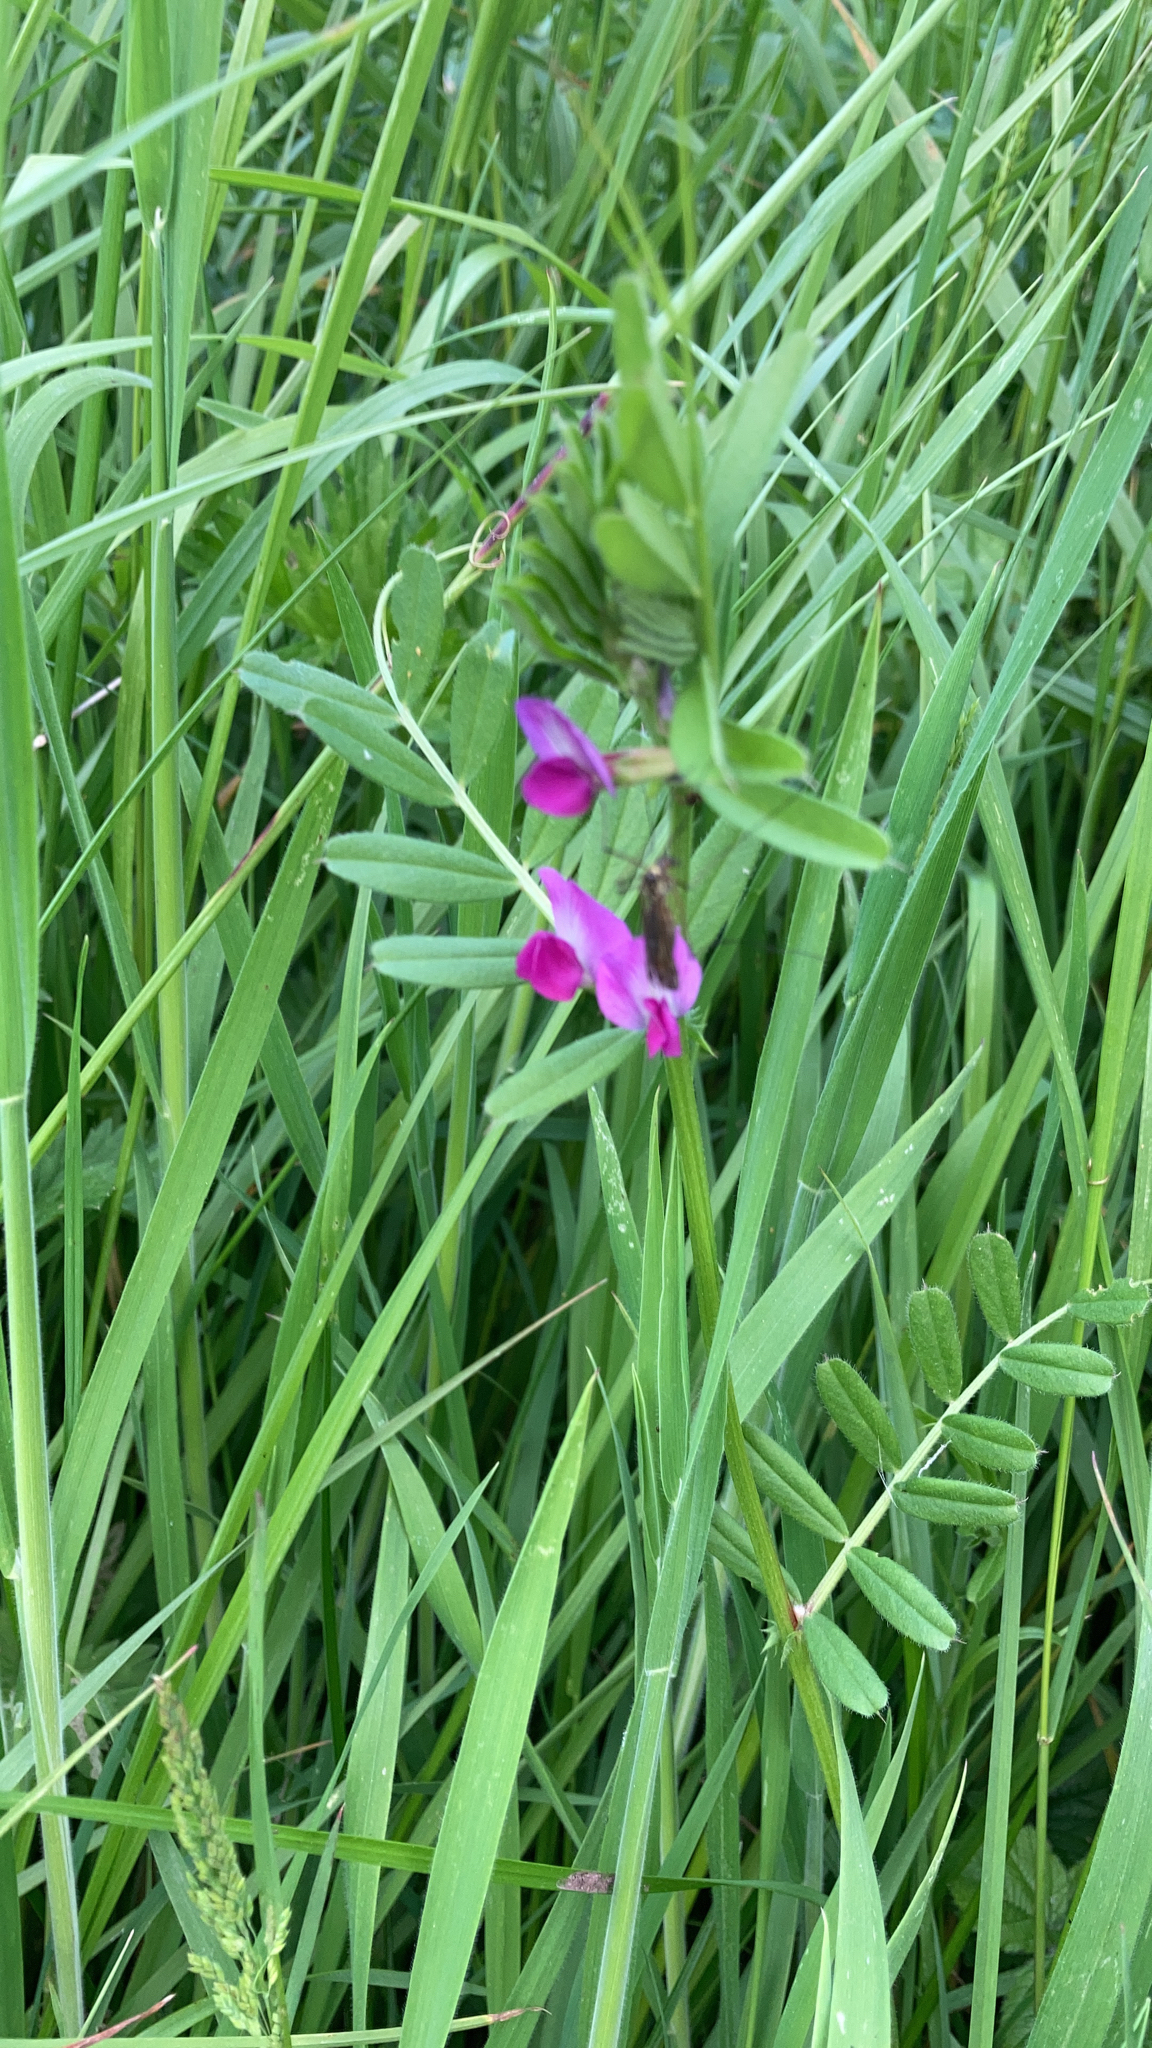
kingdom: Plantae
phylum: Tracheophyta
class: Magnoliopsida
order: Fabales
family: Fabaceae
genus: Vicia
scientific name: Vicia sativa
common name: Garden vetch
